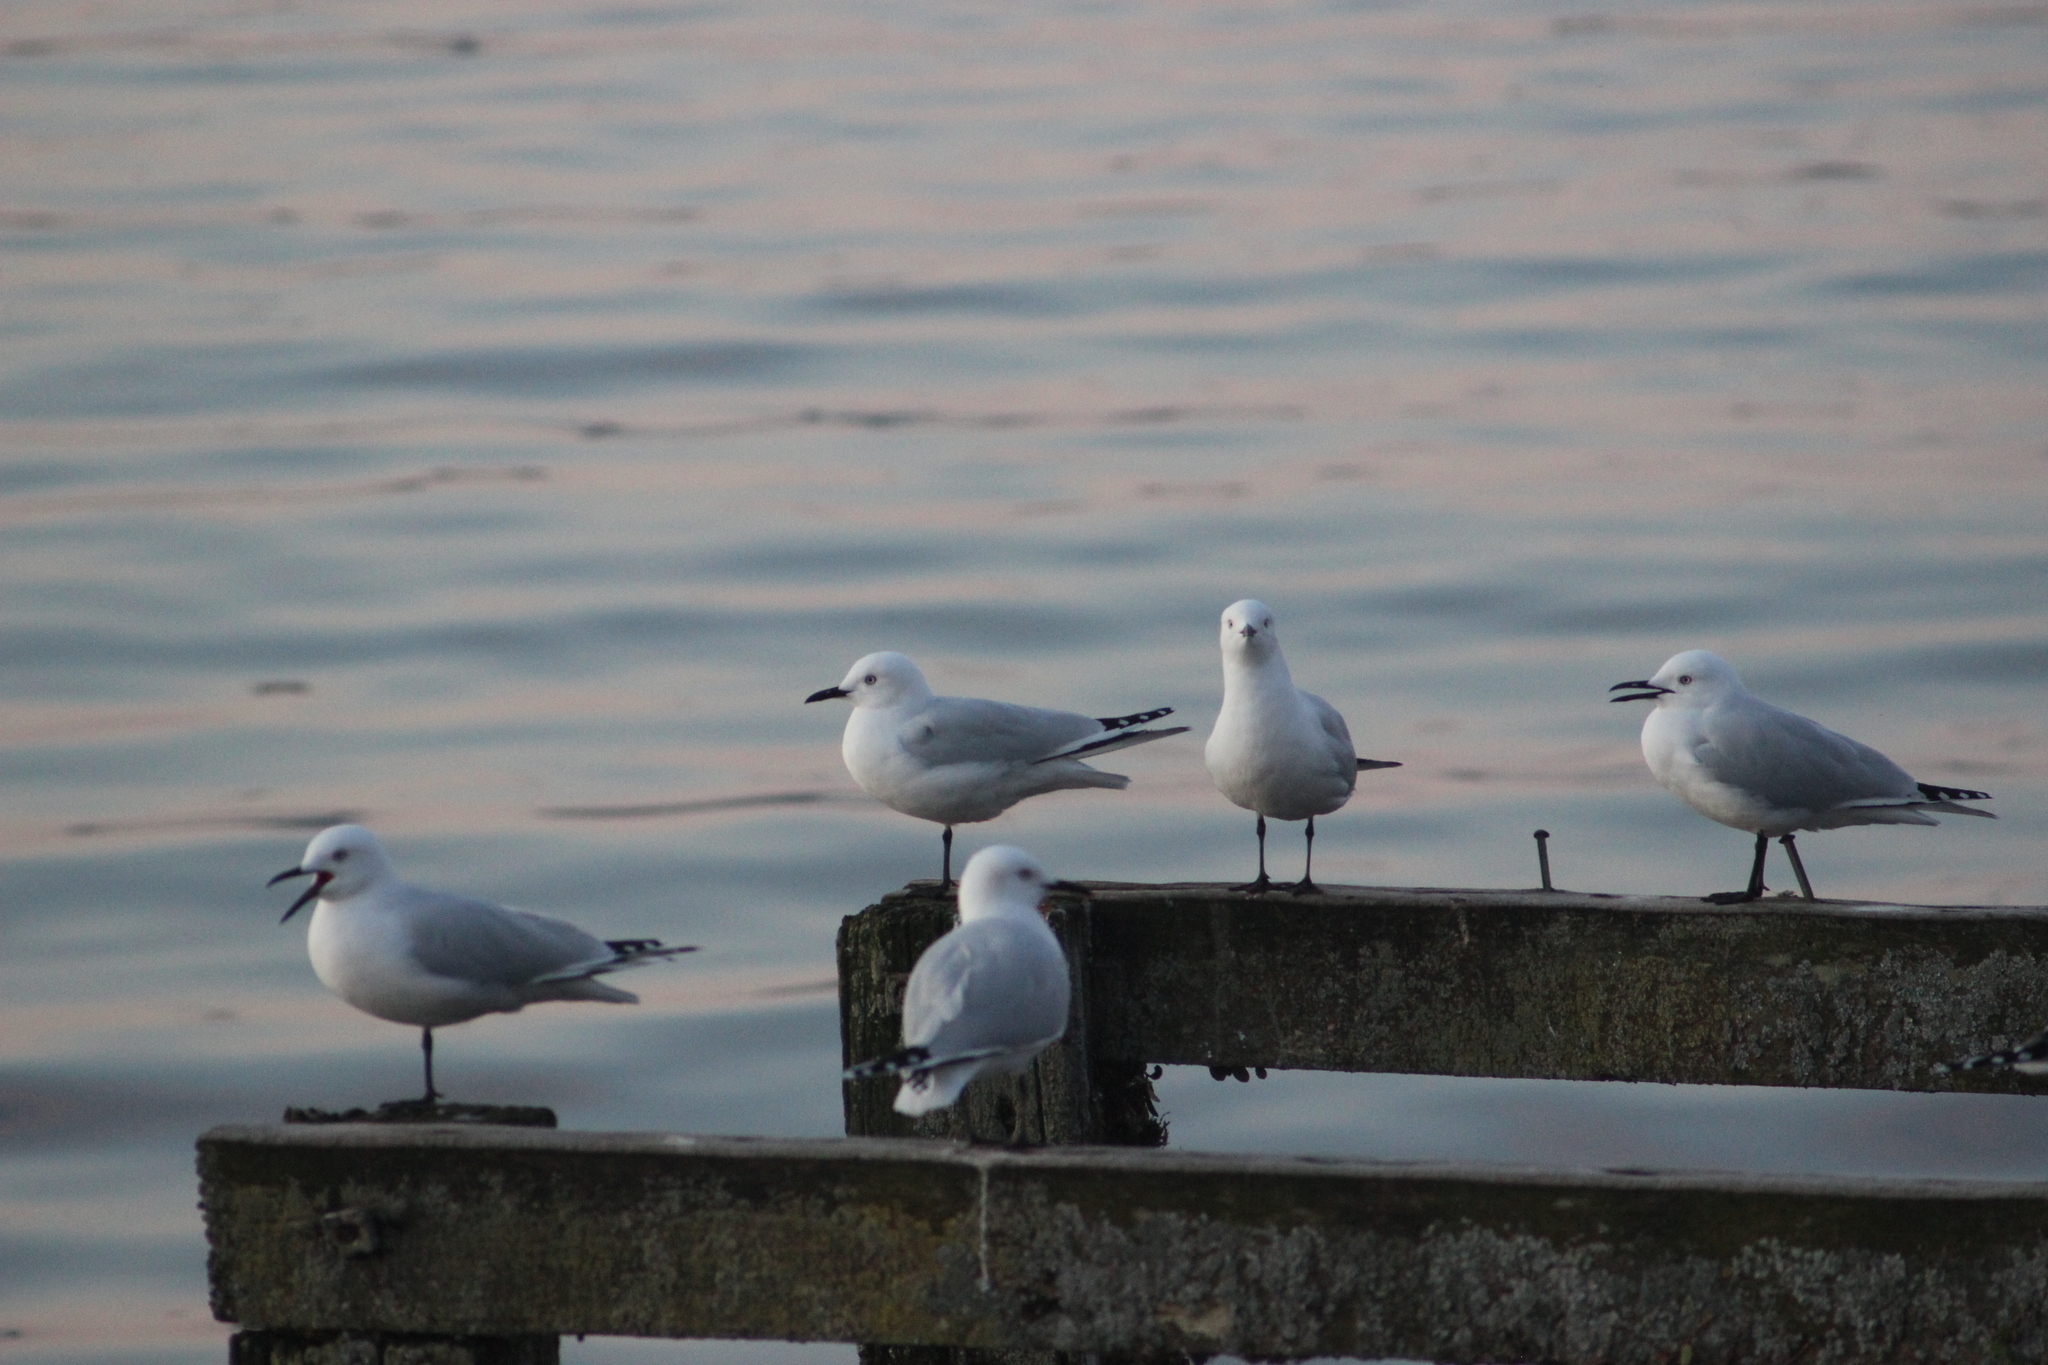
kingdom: Animalia
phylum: Chordata
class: Aves
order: Charadriiformes
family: Laridae
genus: Chroicocephalus
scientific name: Chroicocephalus bulleri
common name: Black-billed gull
